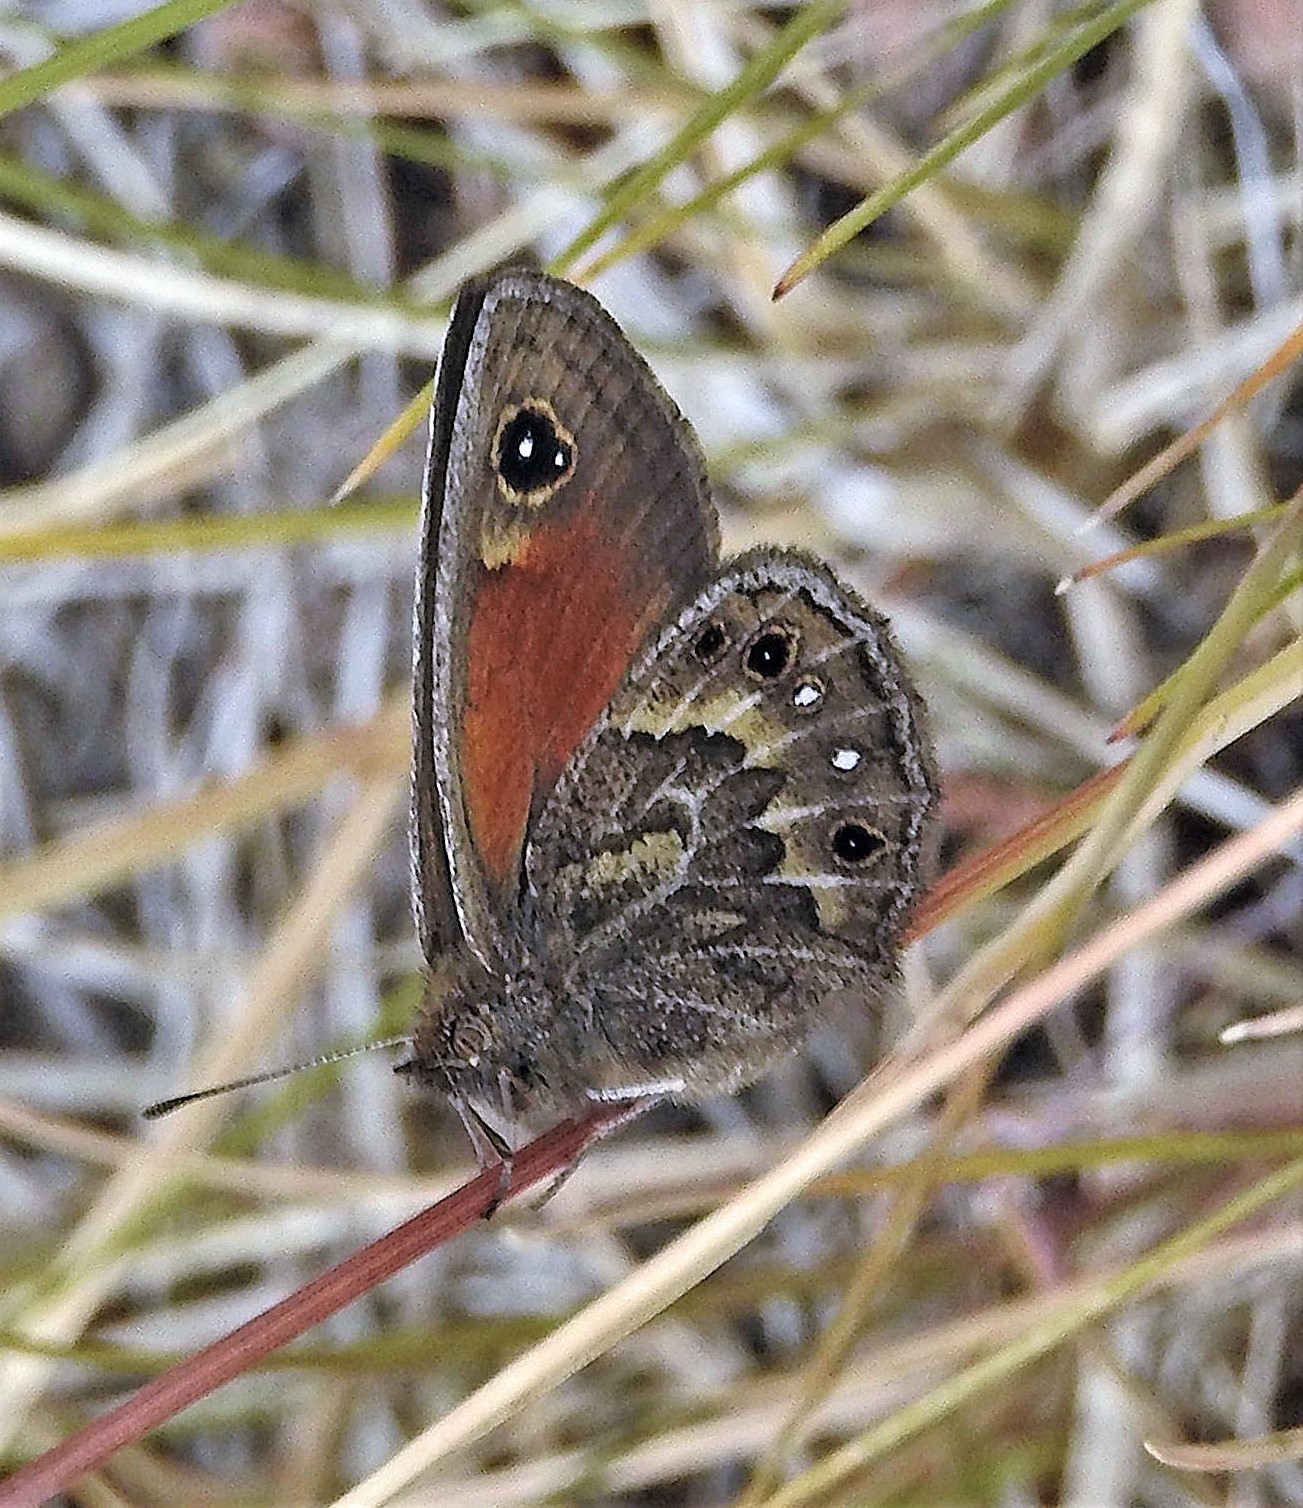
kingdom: Animalia
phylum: Arthropoda
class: Insecta
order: Lepidoptera
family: Nymphalidae
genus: Cosmosatyrus
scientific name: Cosmosatyrus leptoneuroides
